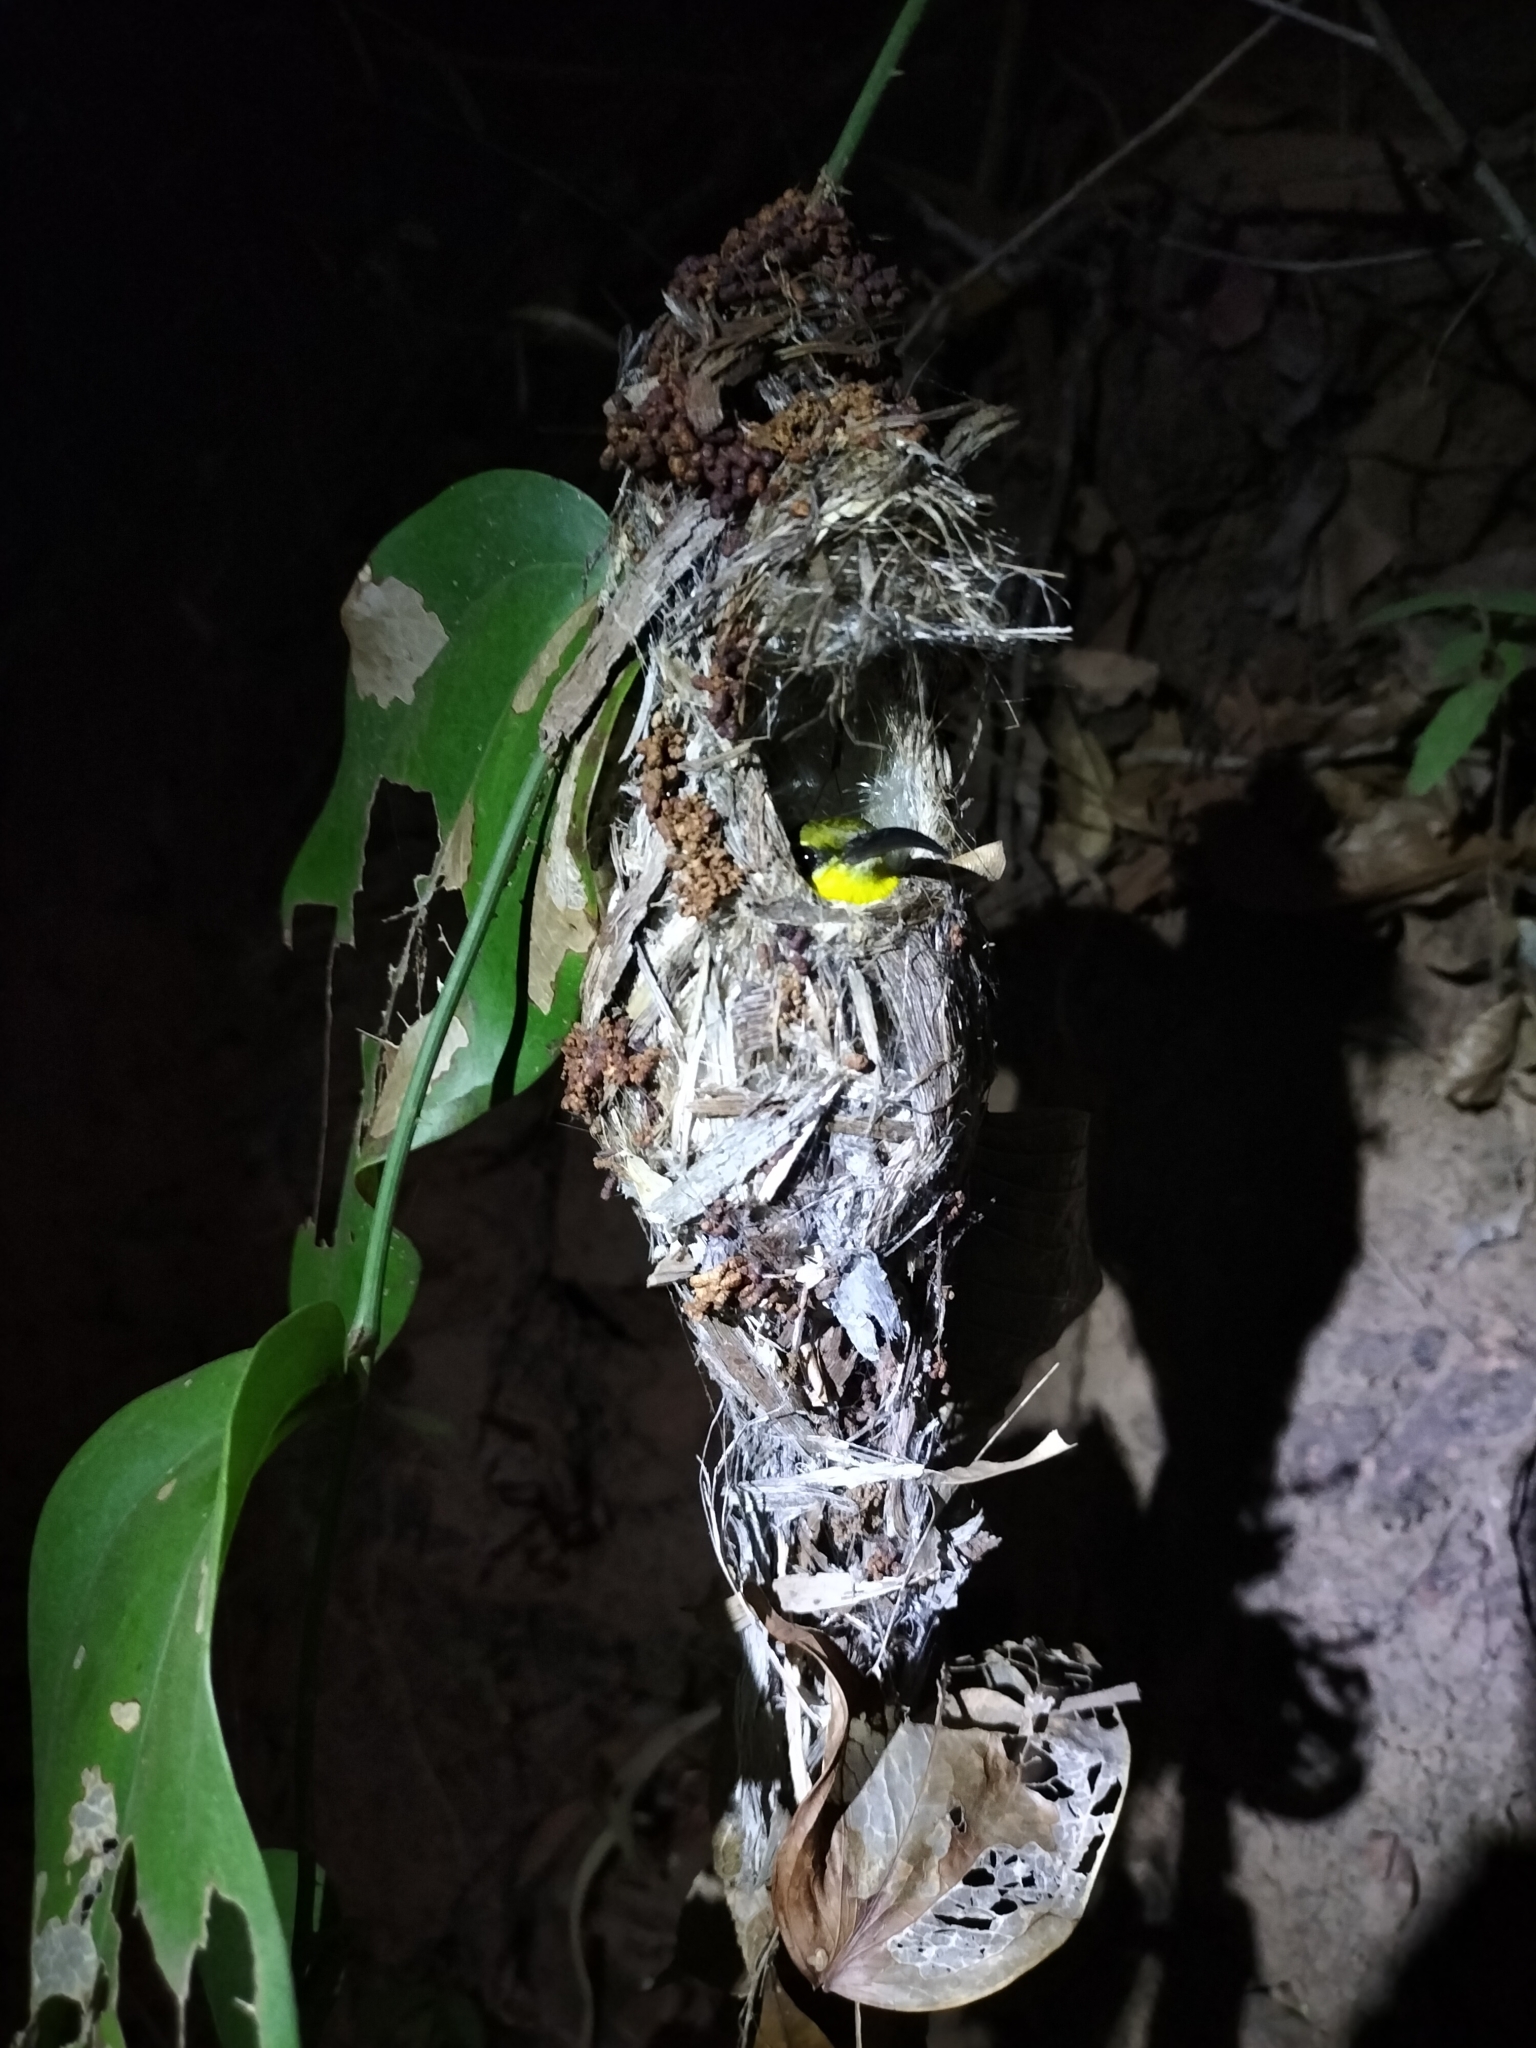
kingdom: Animalia
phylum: Chordata
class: Aves
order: Passeriformes
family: Nectariniidae
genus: Cinnyris
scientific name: Cinnyris
